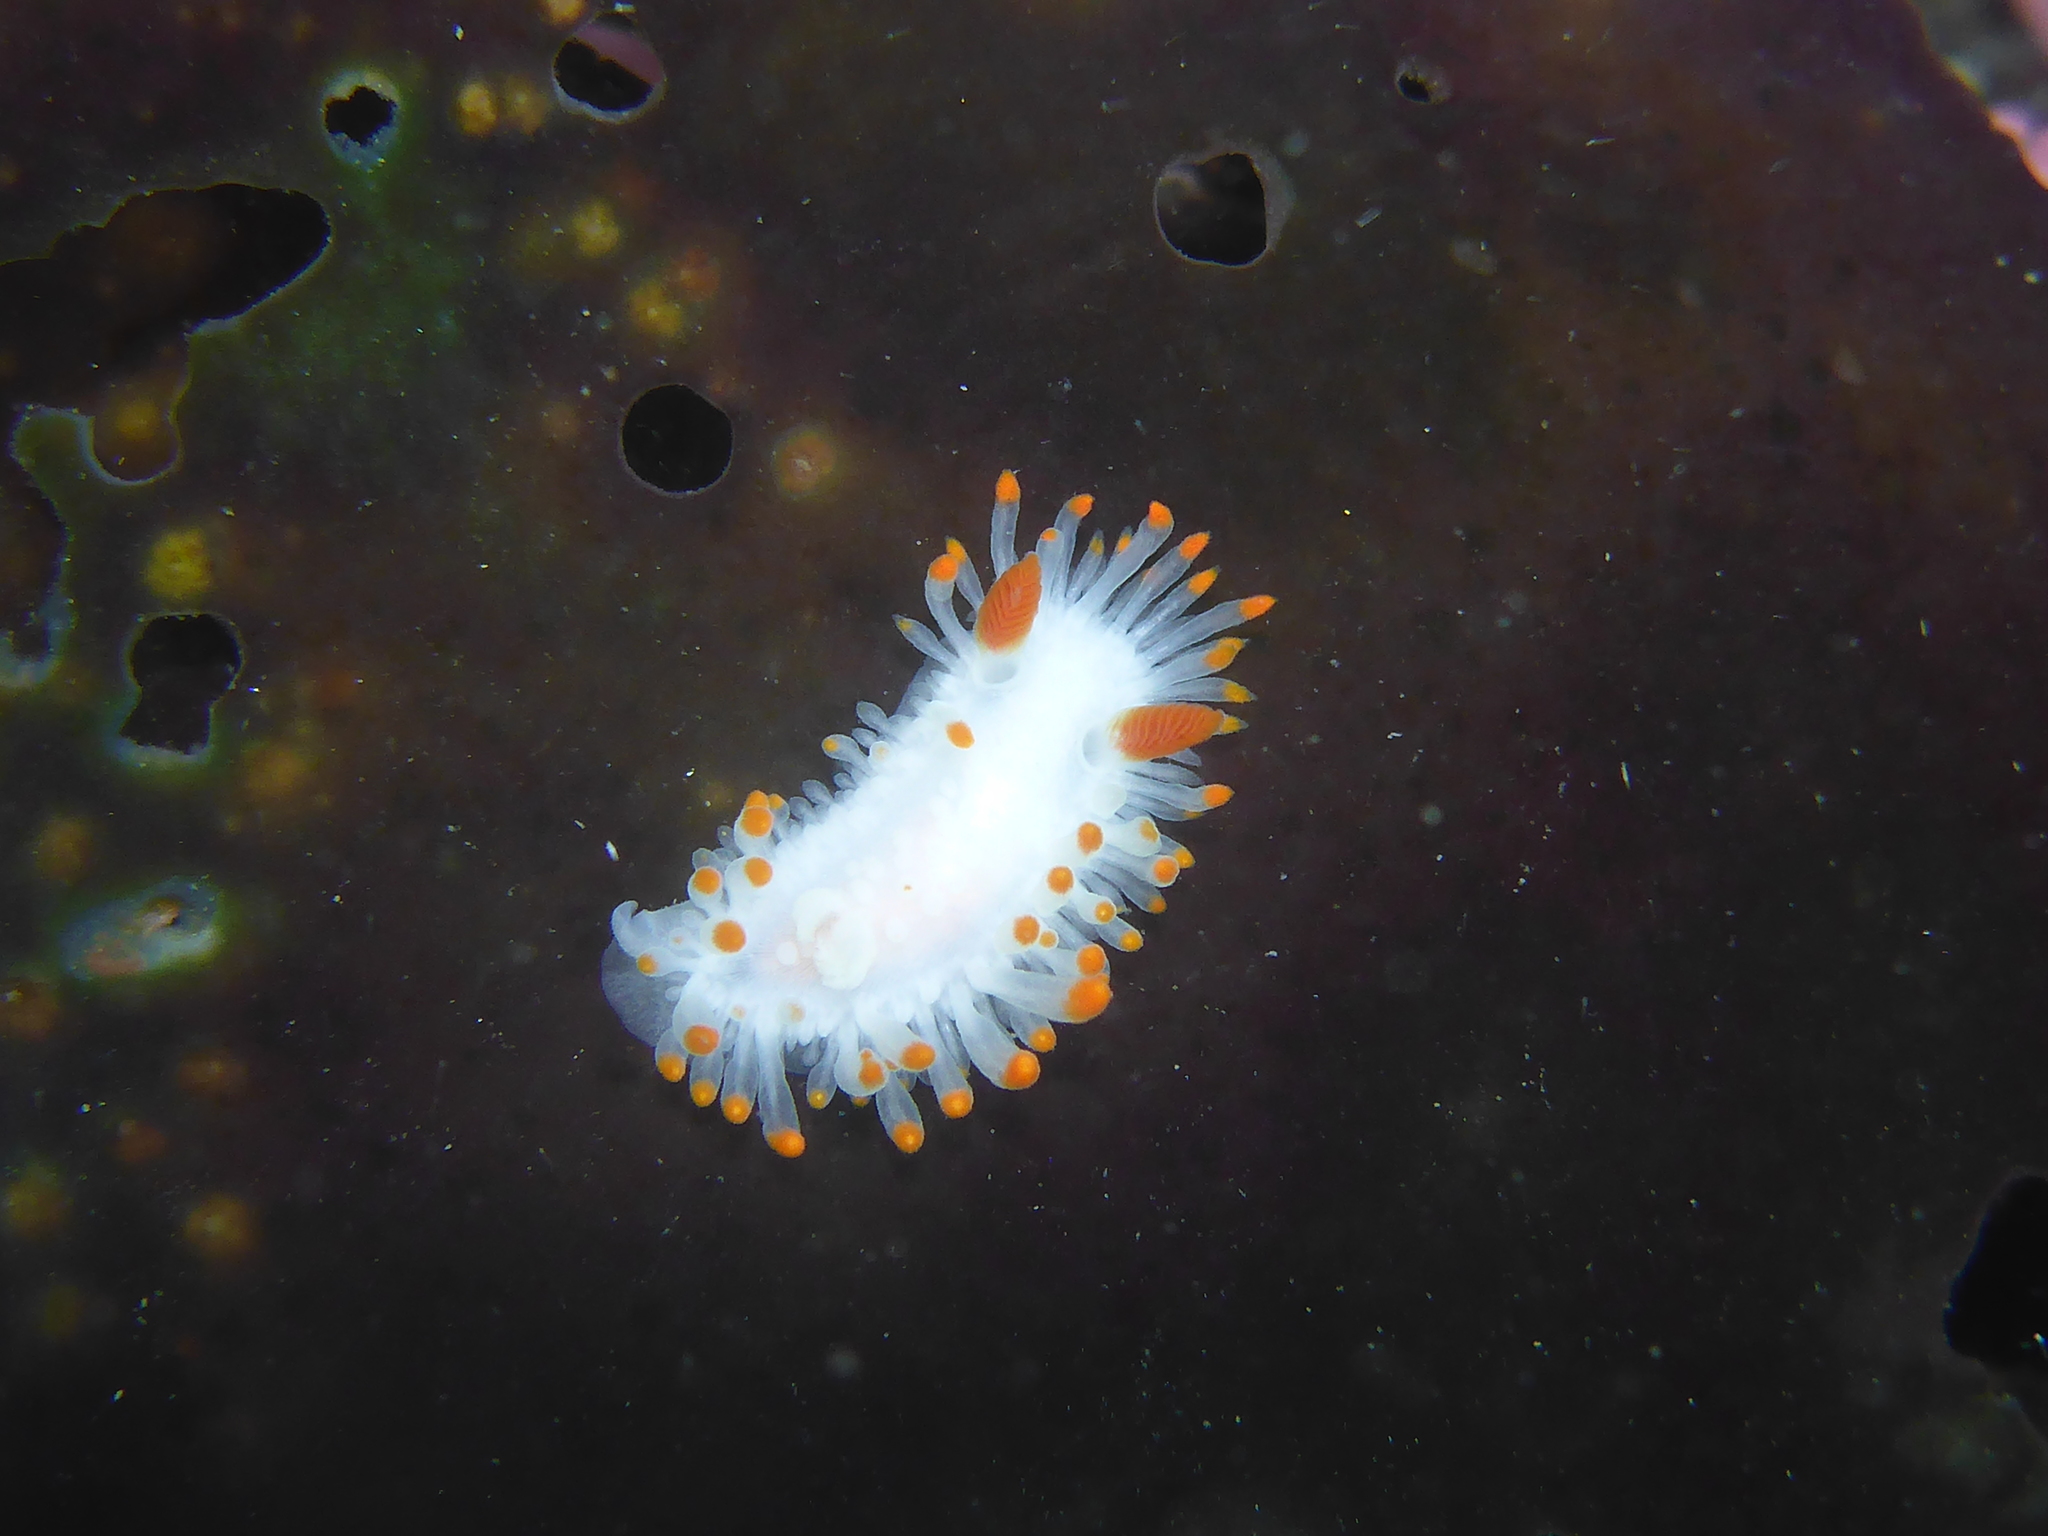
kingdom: Animalia
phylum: Mollusca
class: Gastropoda
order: Nudibranchia
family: Polyceridae
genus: Limacia
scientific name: Limacia cockerelli
